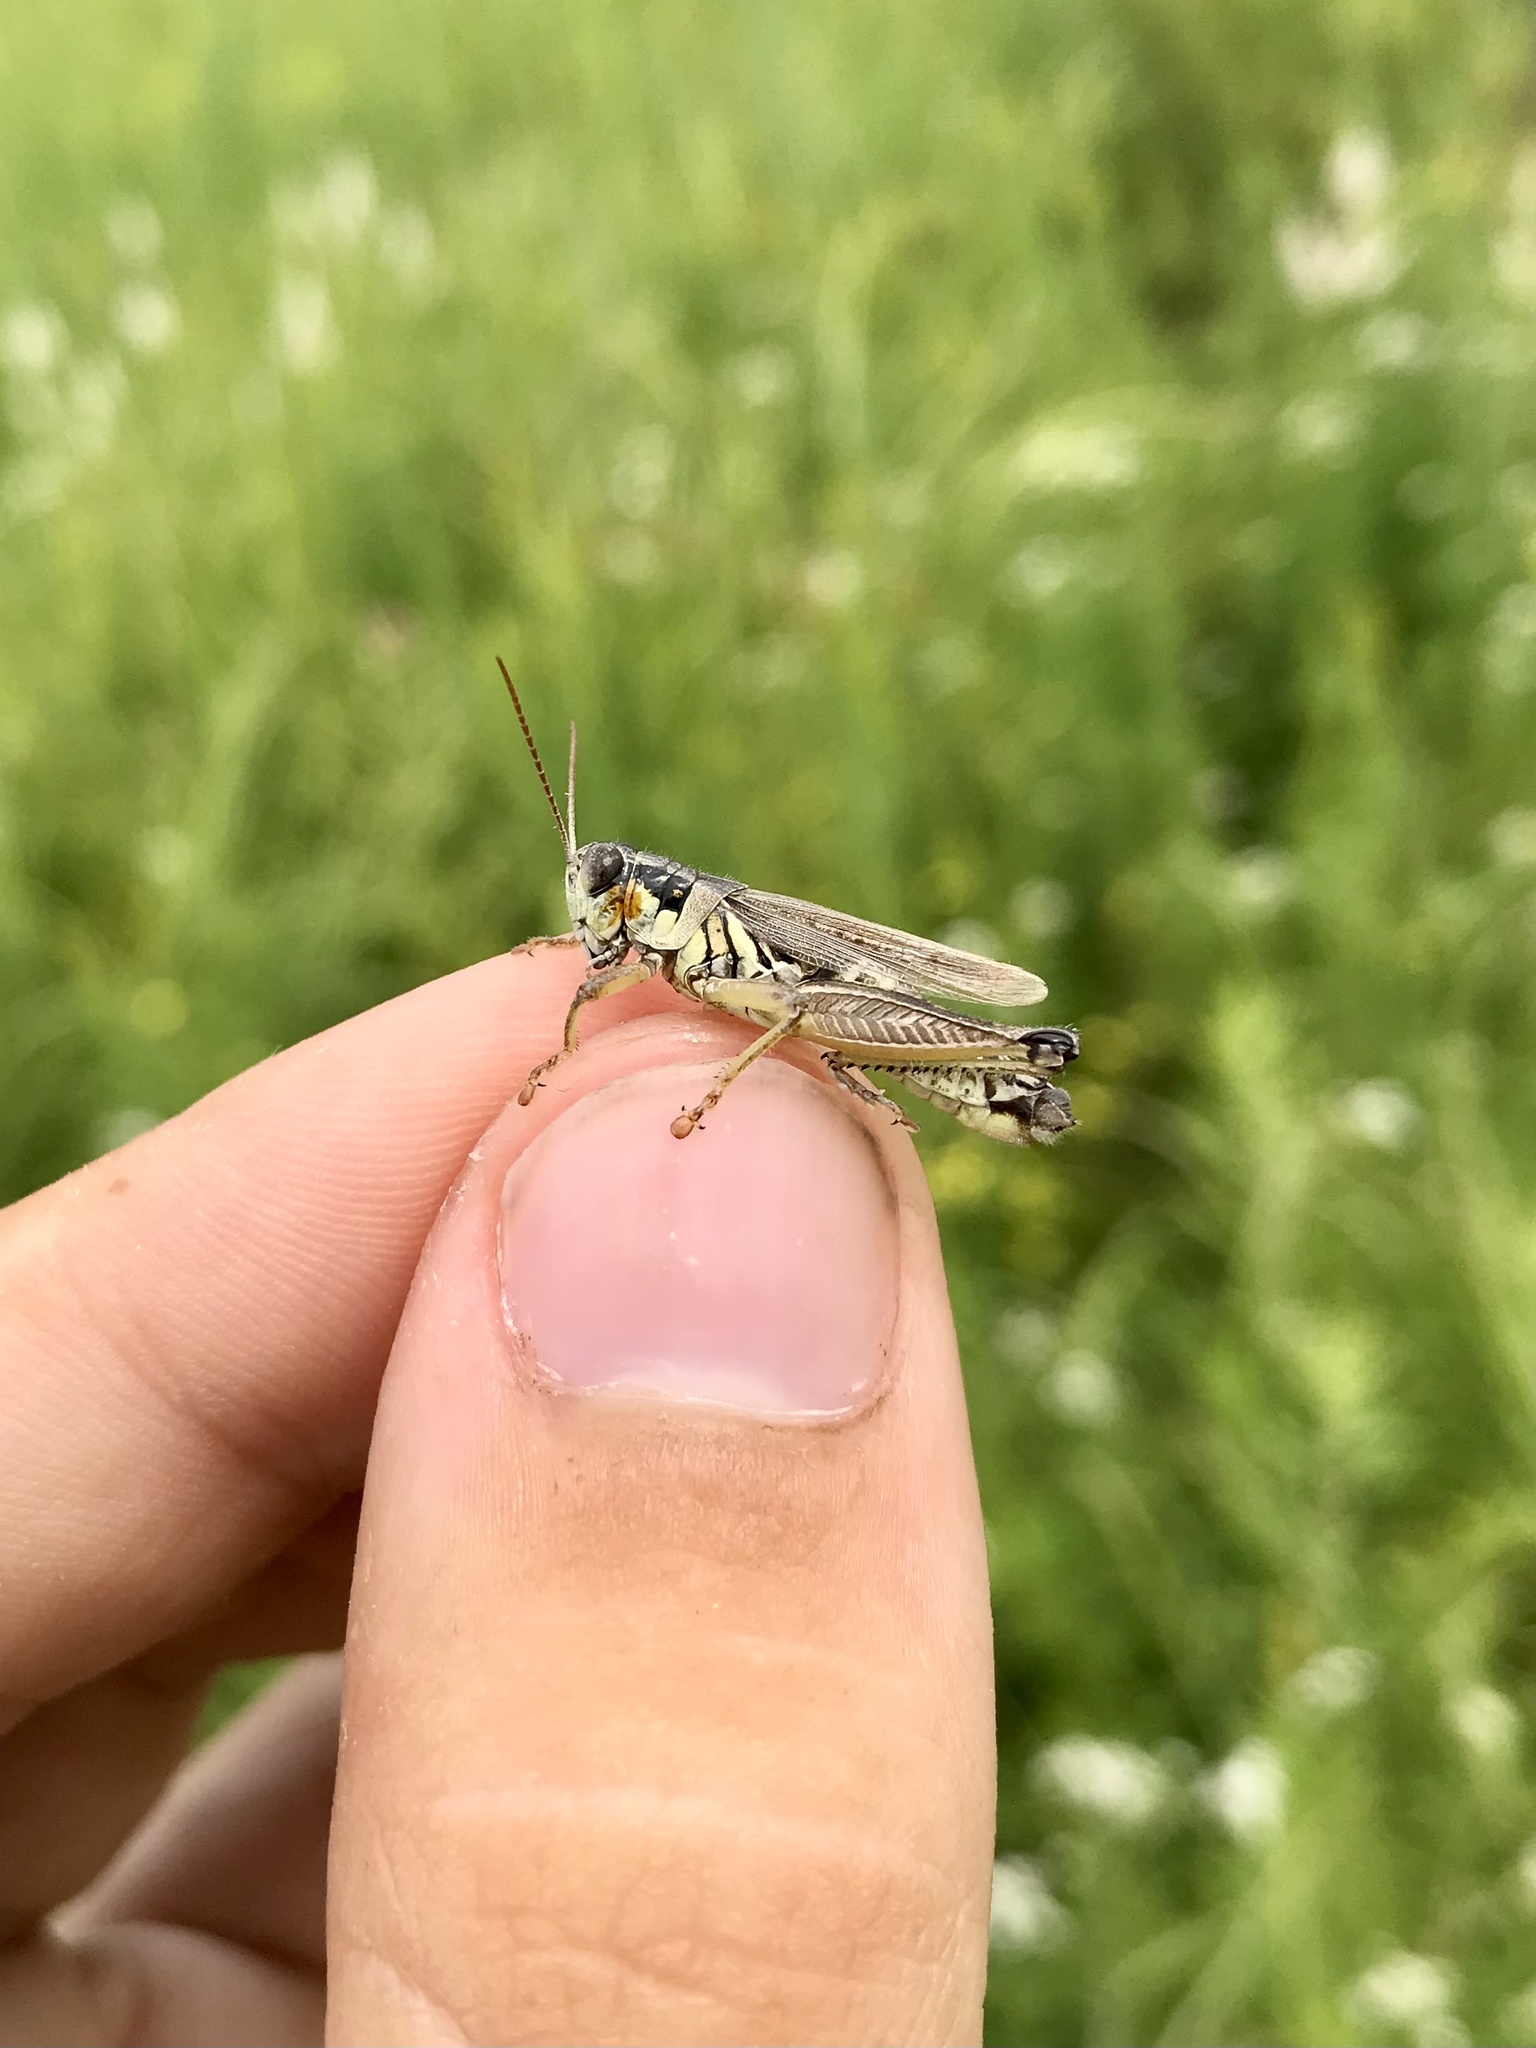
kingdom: Animalia
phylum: Arthropoda
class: Insecta
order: Orthoptera
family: Acrididae
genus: Melanoplus
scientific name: Melanoplus borealis
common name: Northern grasshopper
